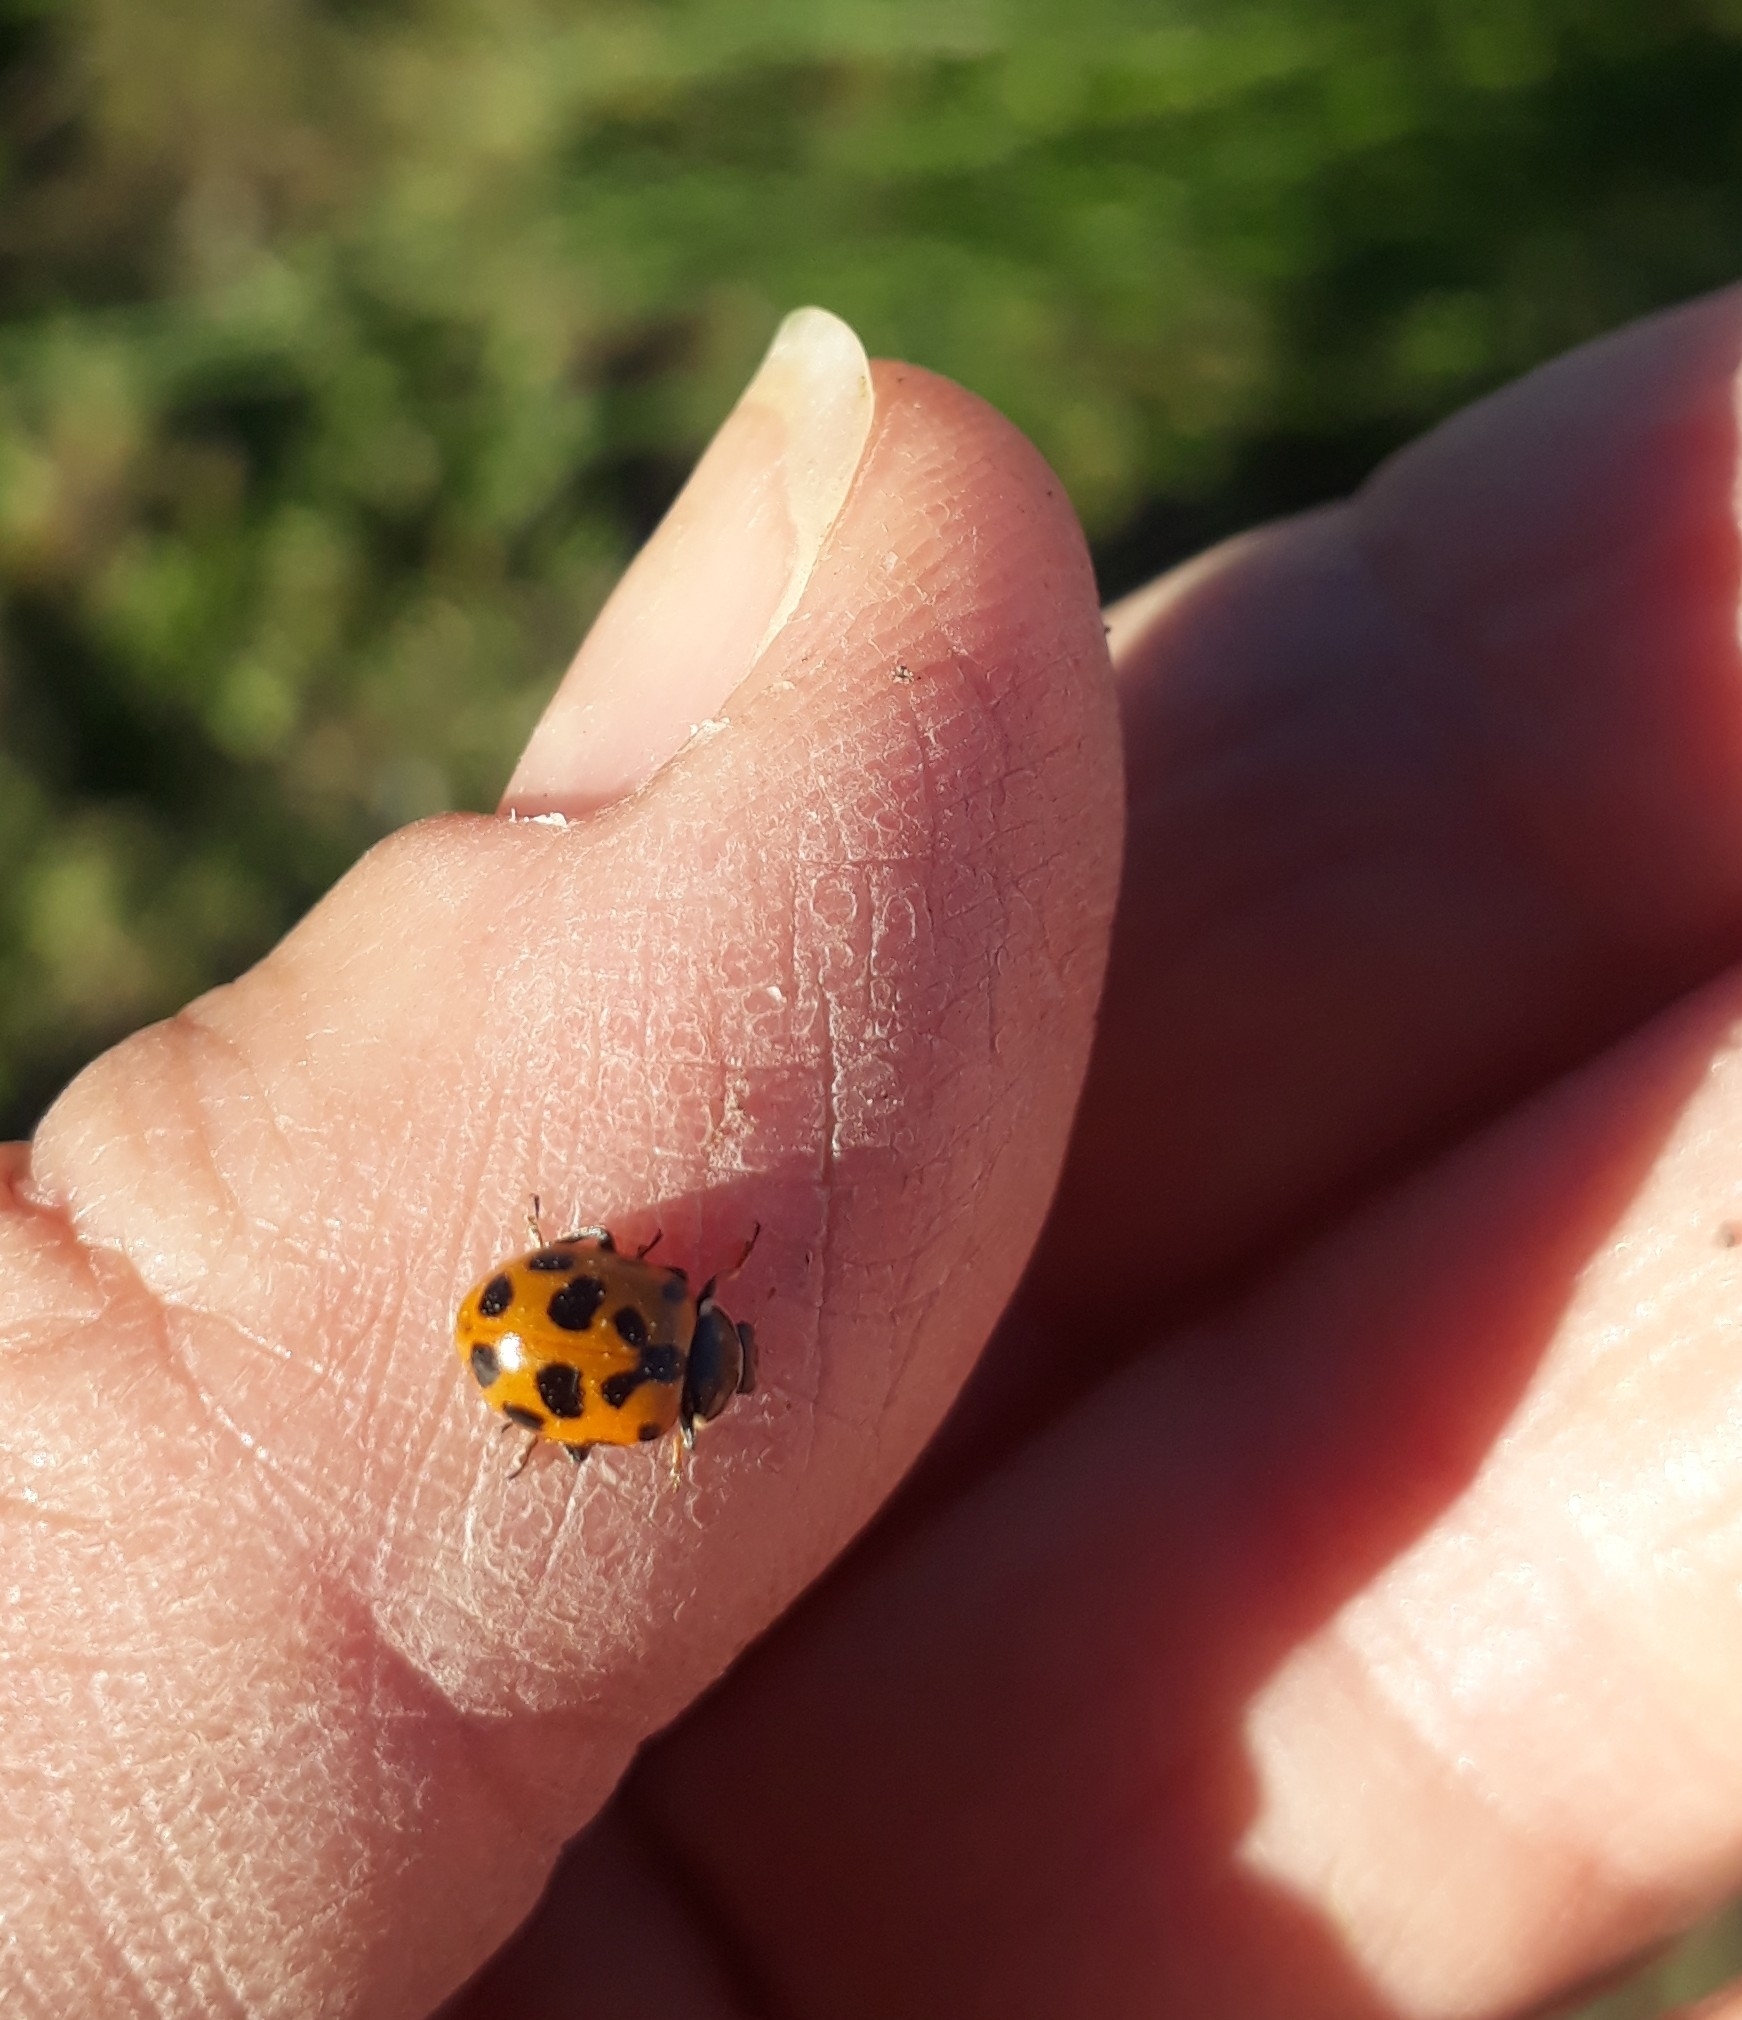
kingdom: Animalia
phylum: Arthropoda
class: Insecta
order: Coleoptera
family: Coccinellidae
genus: Hippodamia
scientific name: Hippodamia variegata
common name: Ladybird beetle
